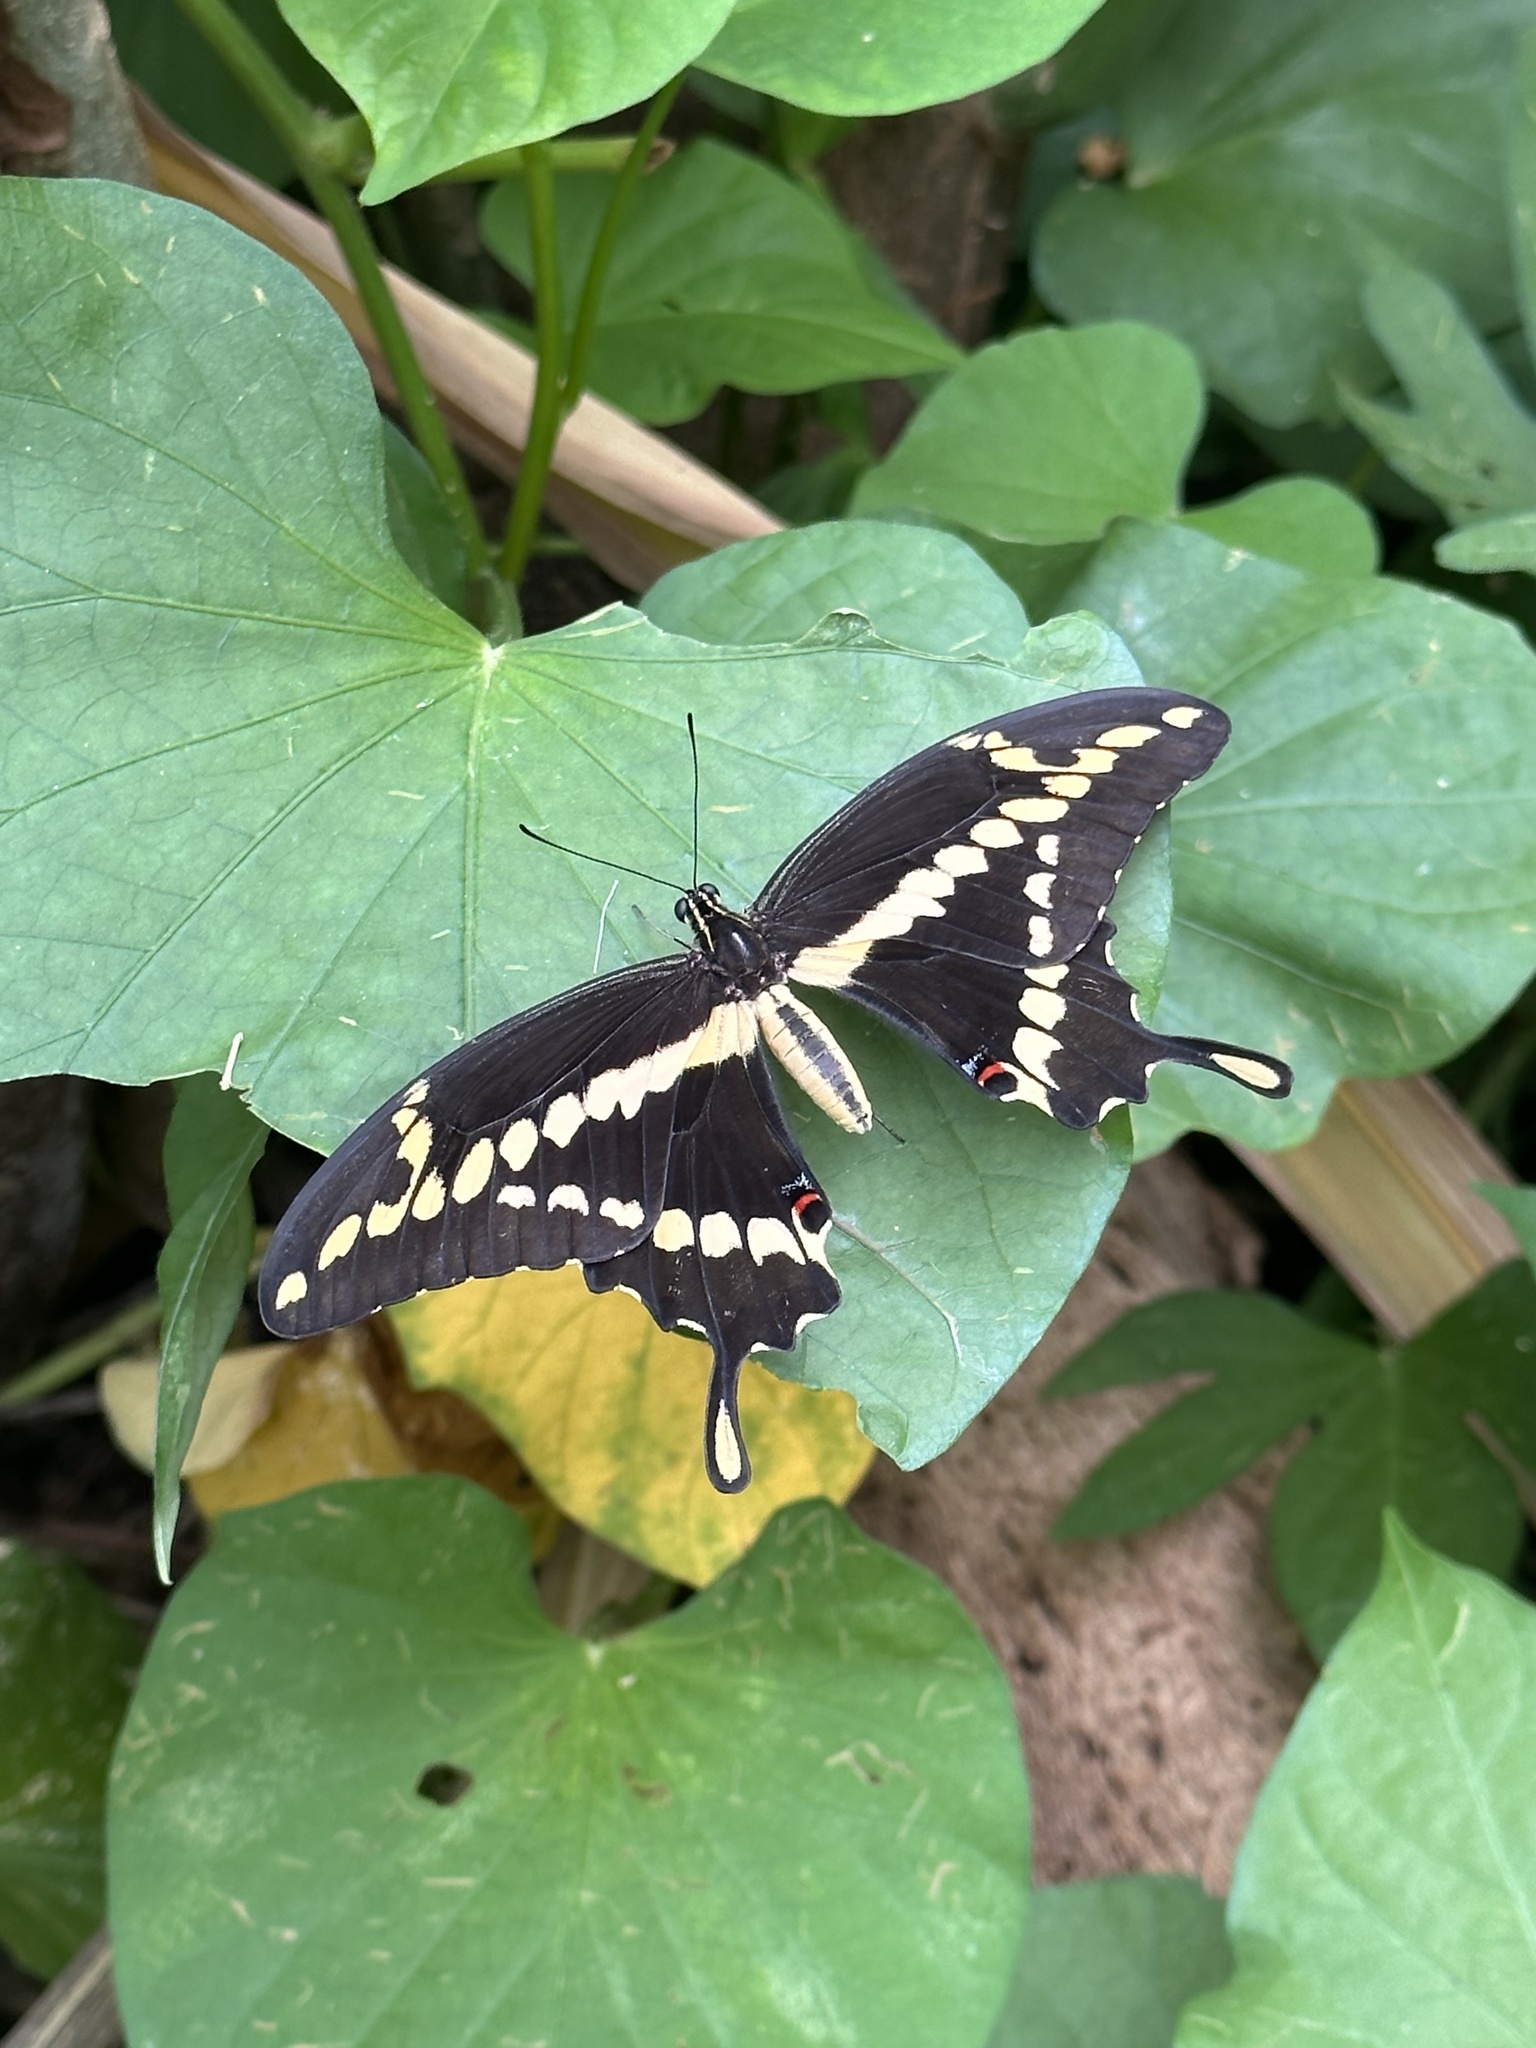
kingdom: Animalia
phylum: Arthropoda
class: Insecta
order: Lepidoptera
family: Papilionidae
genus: Papilio
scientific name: Papilio rumiko
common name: Western giant swallowtail
